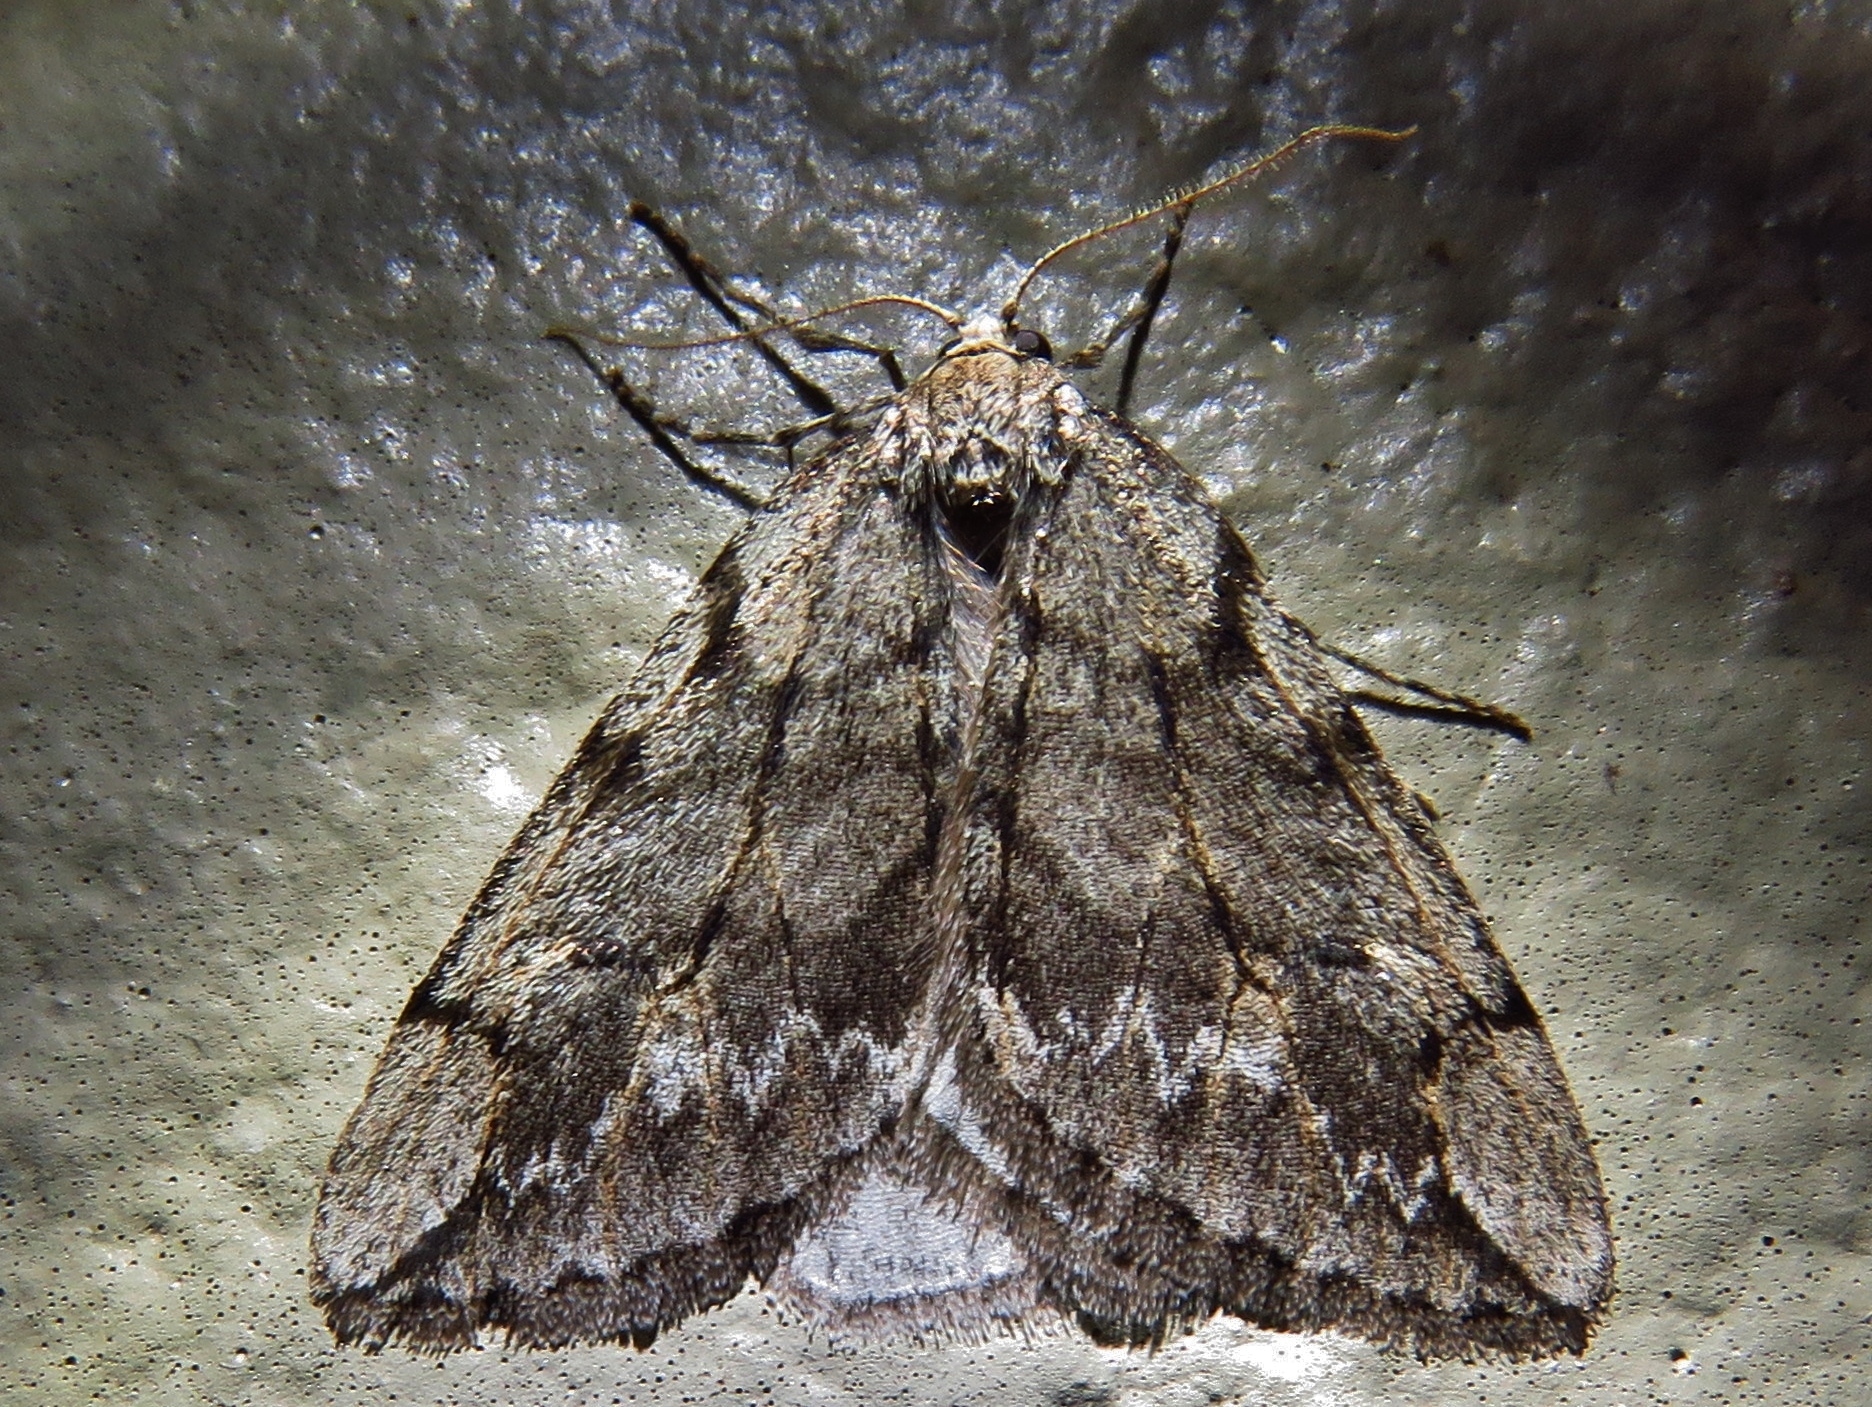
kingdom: Animalia
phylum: Arthropoda
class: Insecta
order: Lepidoptera
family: Geometridae
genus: Paleacrita
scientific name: Paleacrita vernata
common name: Spring cankerworm
